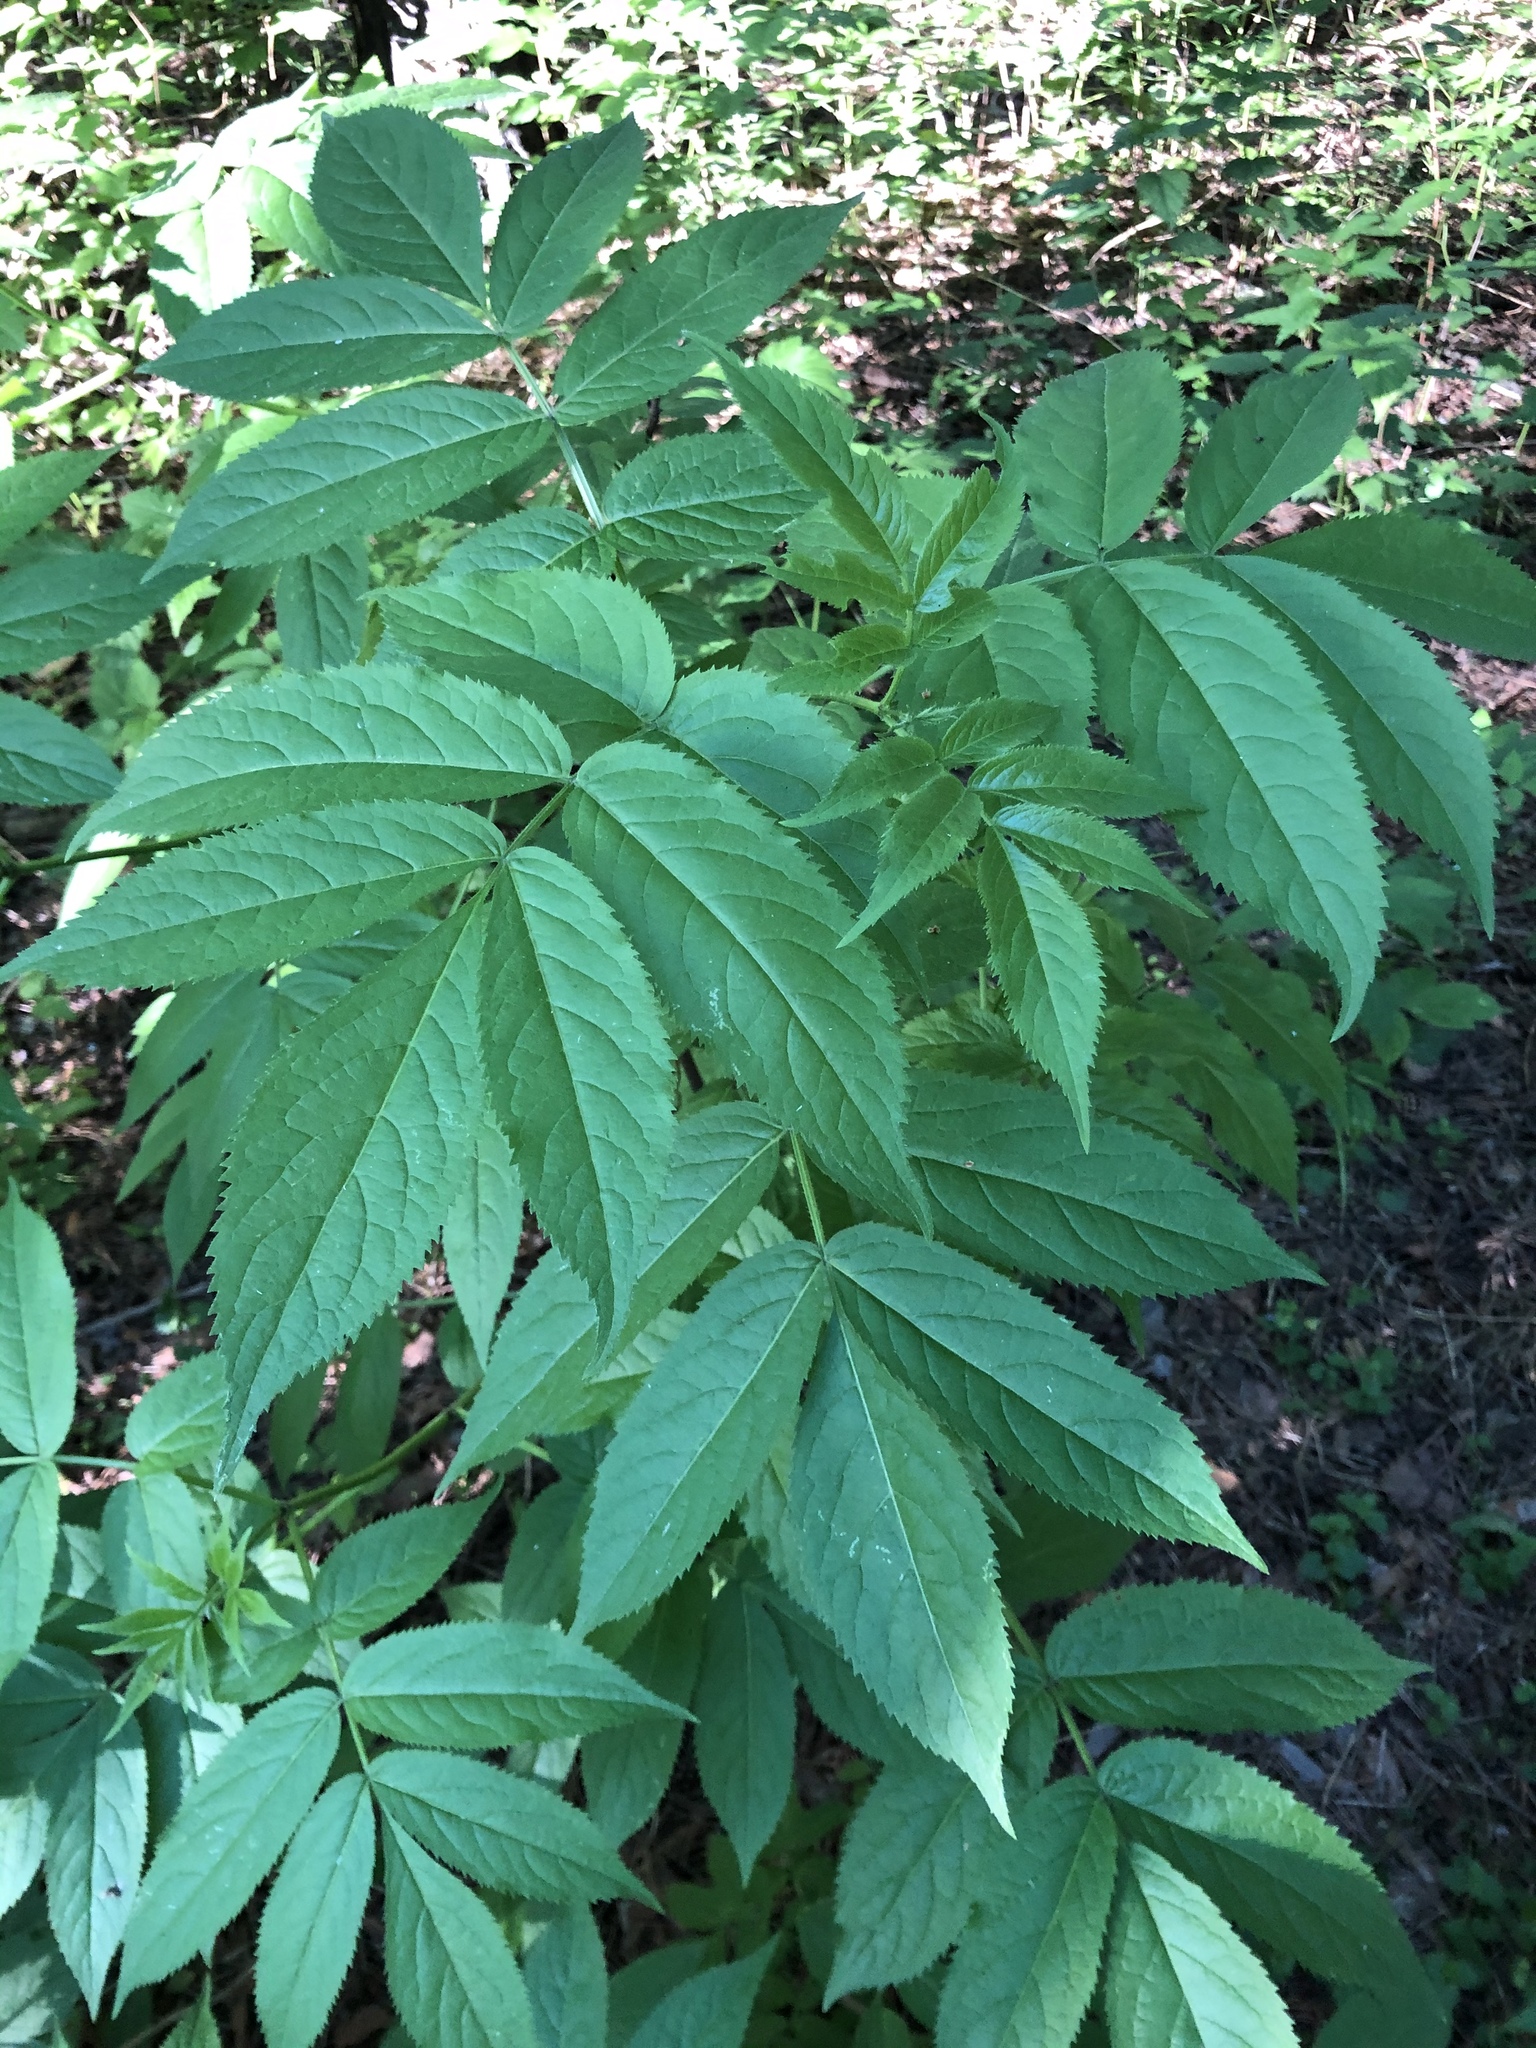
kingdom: Plantae
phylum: Tracheophyta
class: Magnoliopsida
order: Dipsacales
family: Viburnaceae
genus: Sambucus
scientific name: Sambucus sibirica
